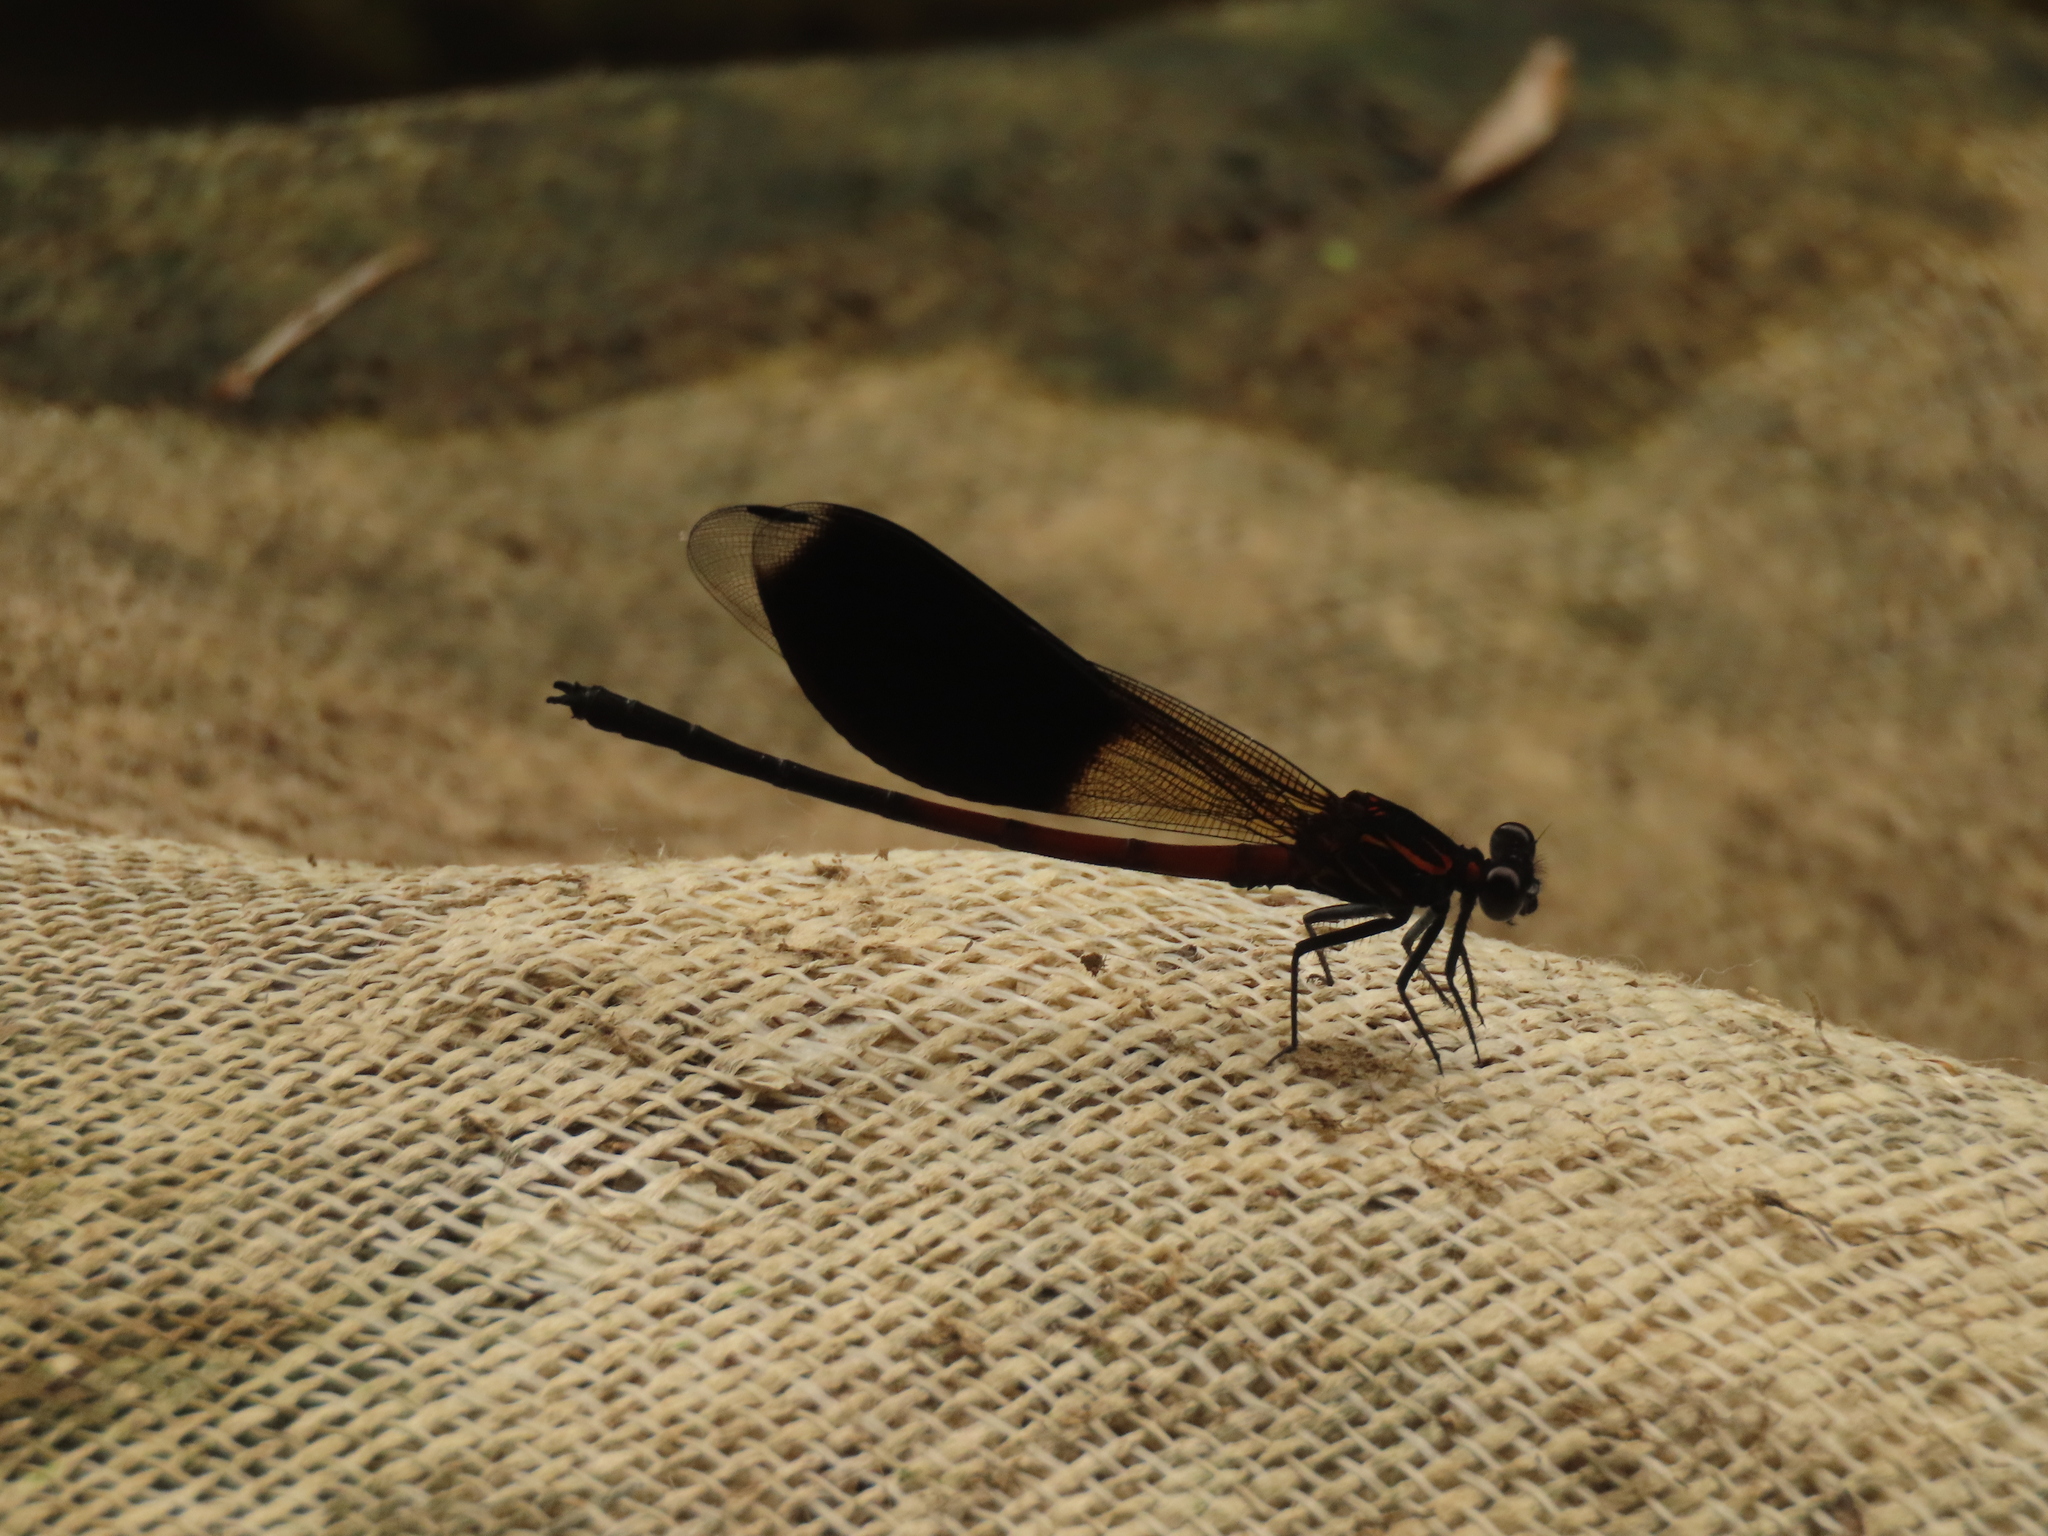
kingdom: Animalia
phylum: Arthropoda
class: Insecta
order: Odonata
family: Euphaeidae
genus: Euphaea
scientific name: Euphaea formosa
